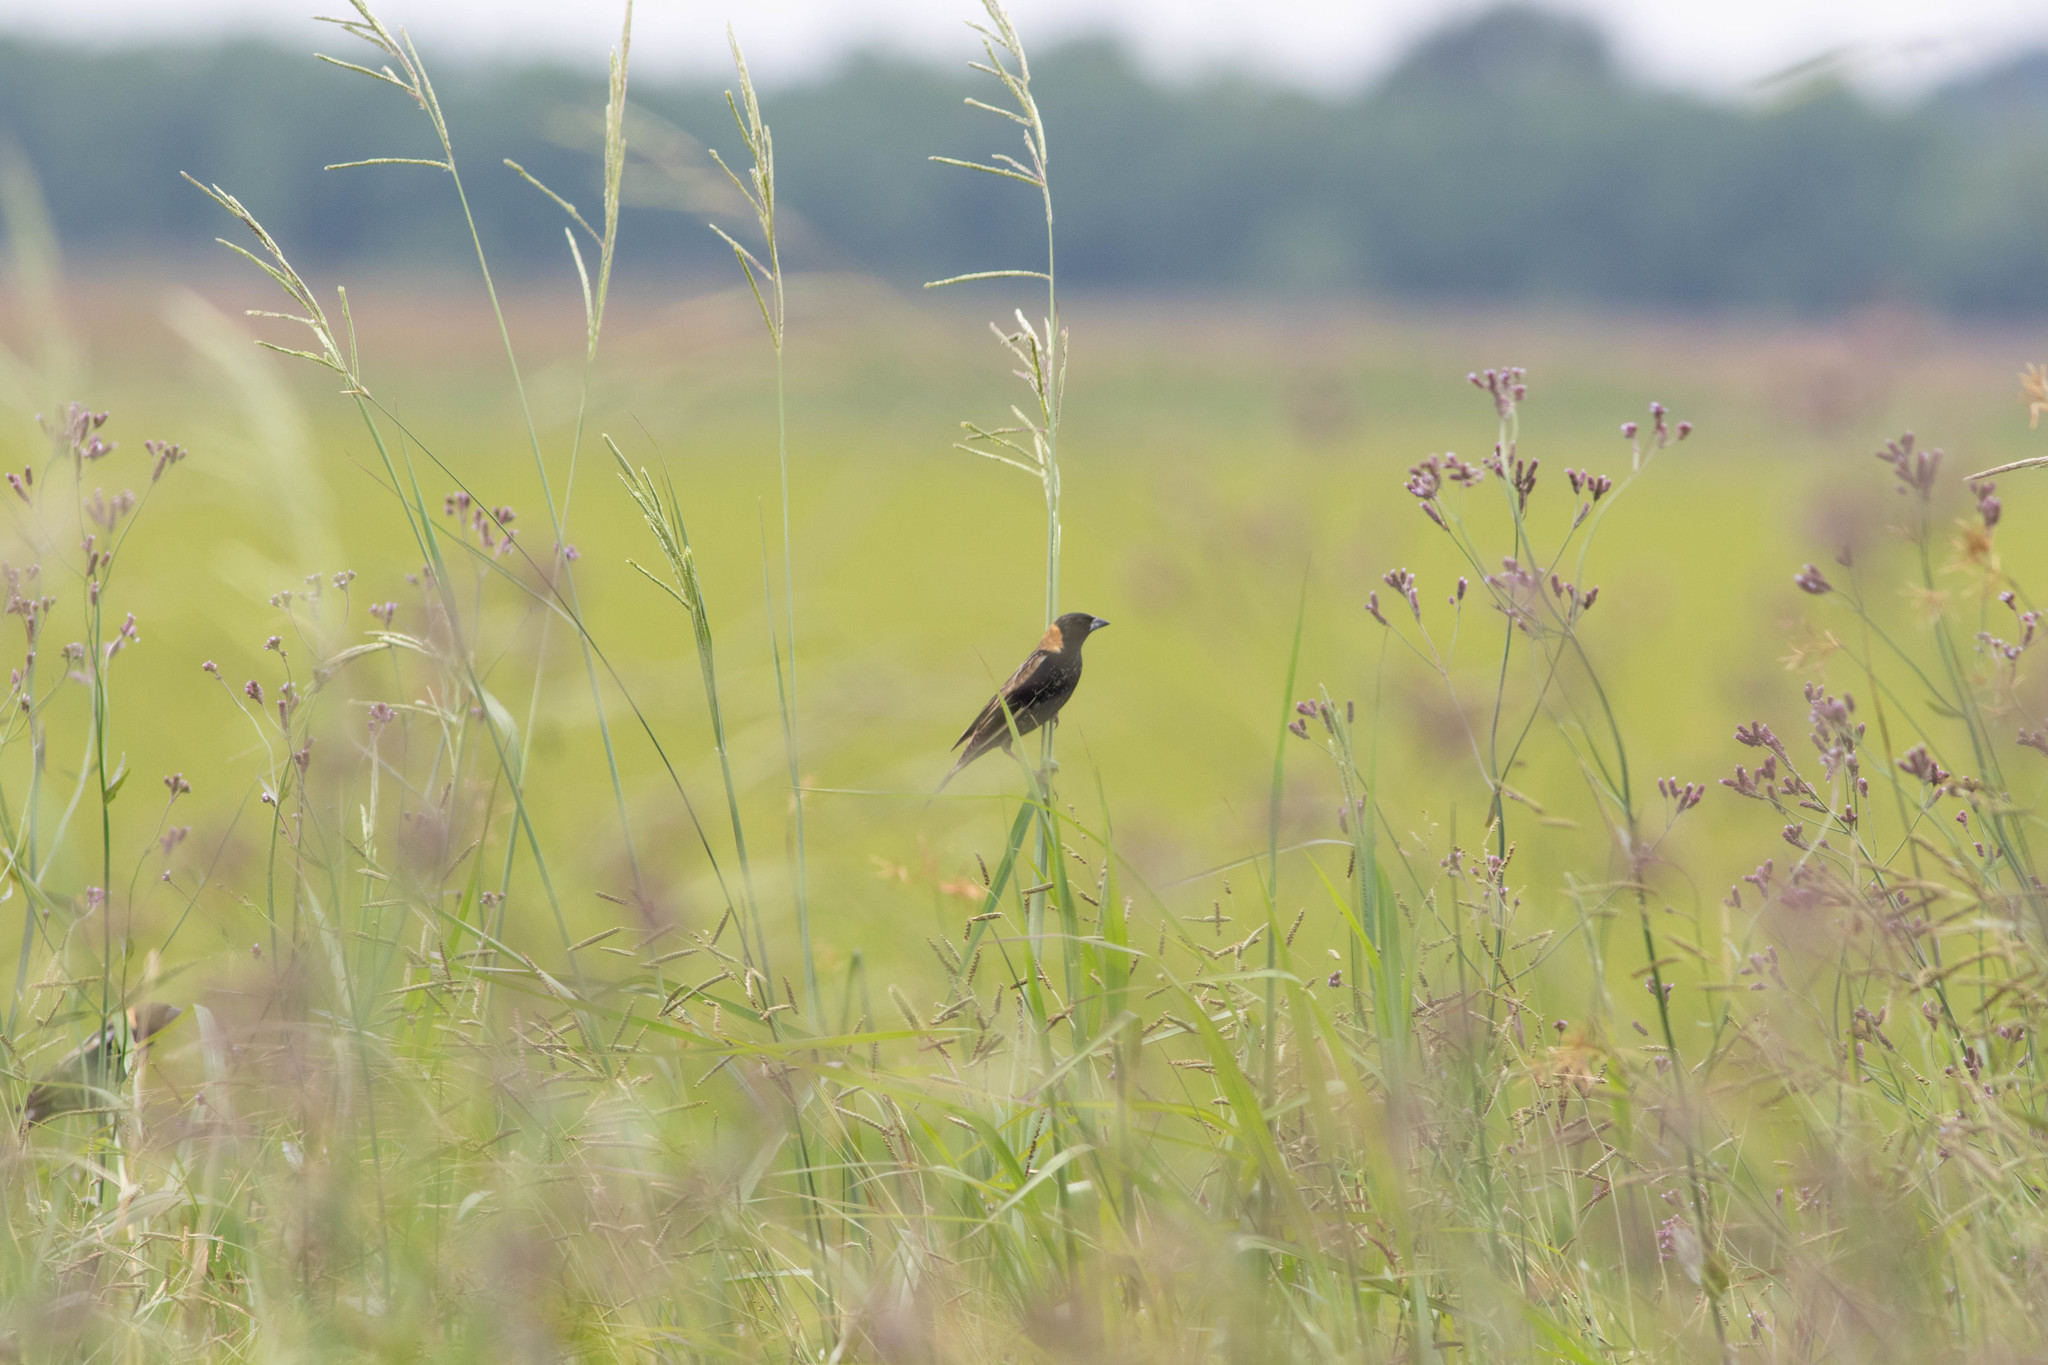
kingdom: Animalia
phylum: Chordata
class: Aves
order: Passeriformes
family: Icteridae
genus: Dolichonyx
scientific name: Dolichonyx oryzivorus
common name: Bobolink
